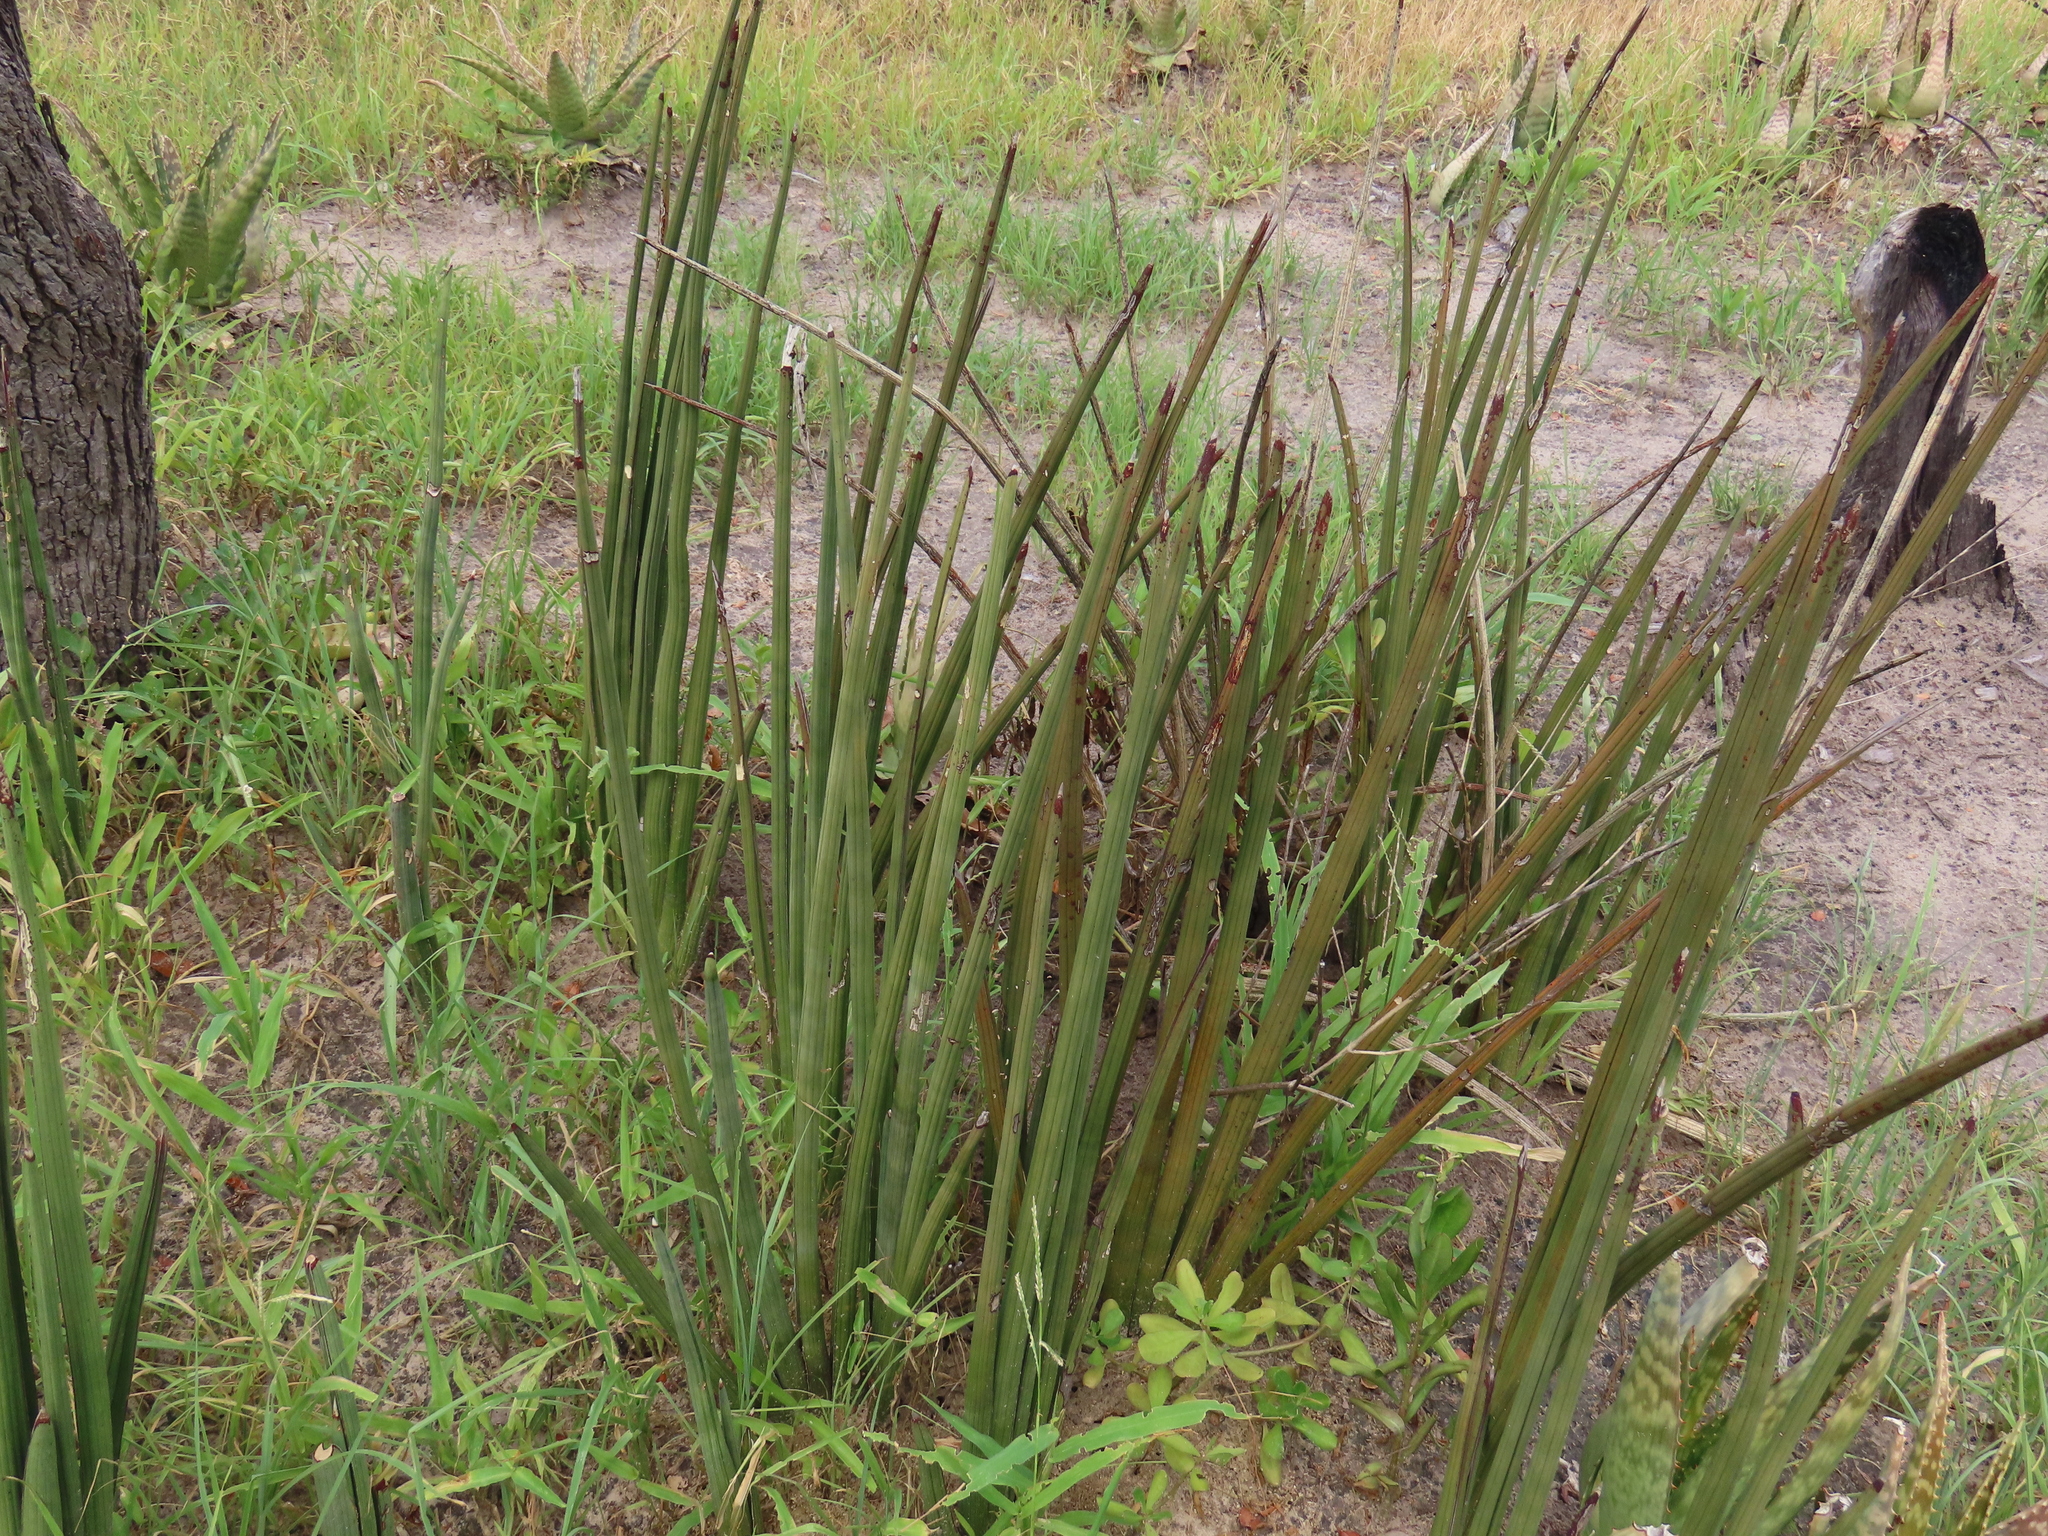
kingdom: Plantae
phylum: Tracheophyta
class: Liliopsida
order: Asparagales
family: Asparagaceae
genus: Dracaena
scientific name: Dracaena pearsonii
